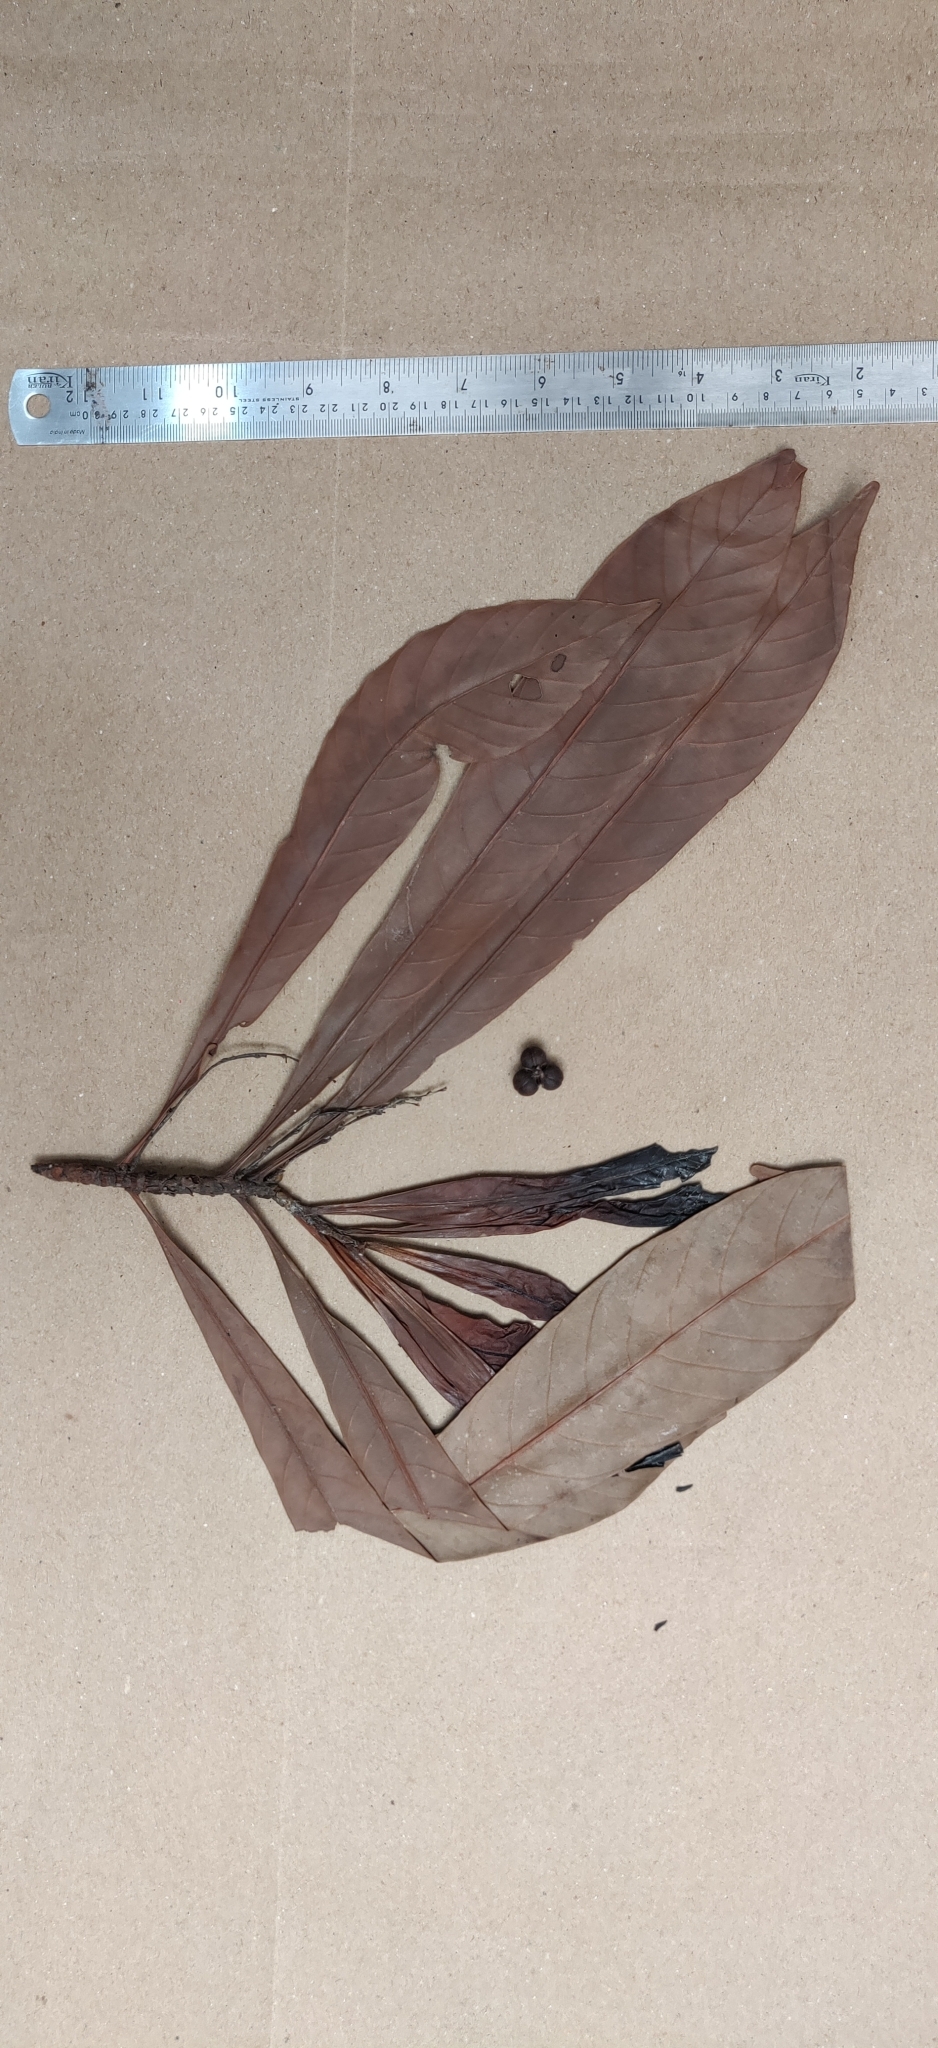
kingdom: Plantae
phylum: Tracheophyta
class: Magnoliopsida
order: Malpighiales
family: Euphorbiaceae
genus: Agrostistachys
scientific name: Agrostistachys borneensis
